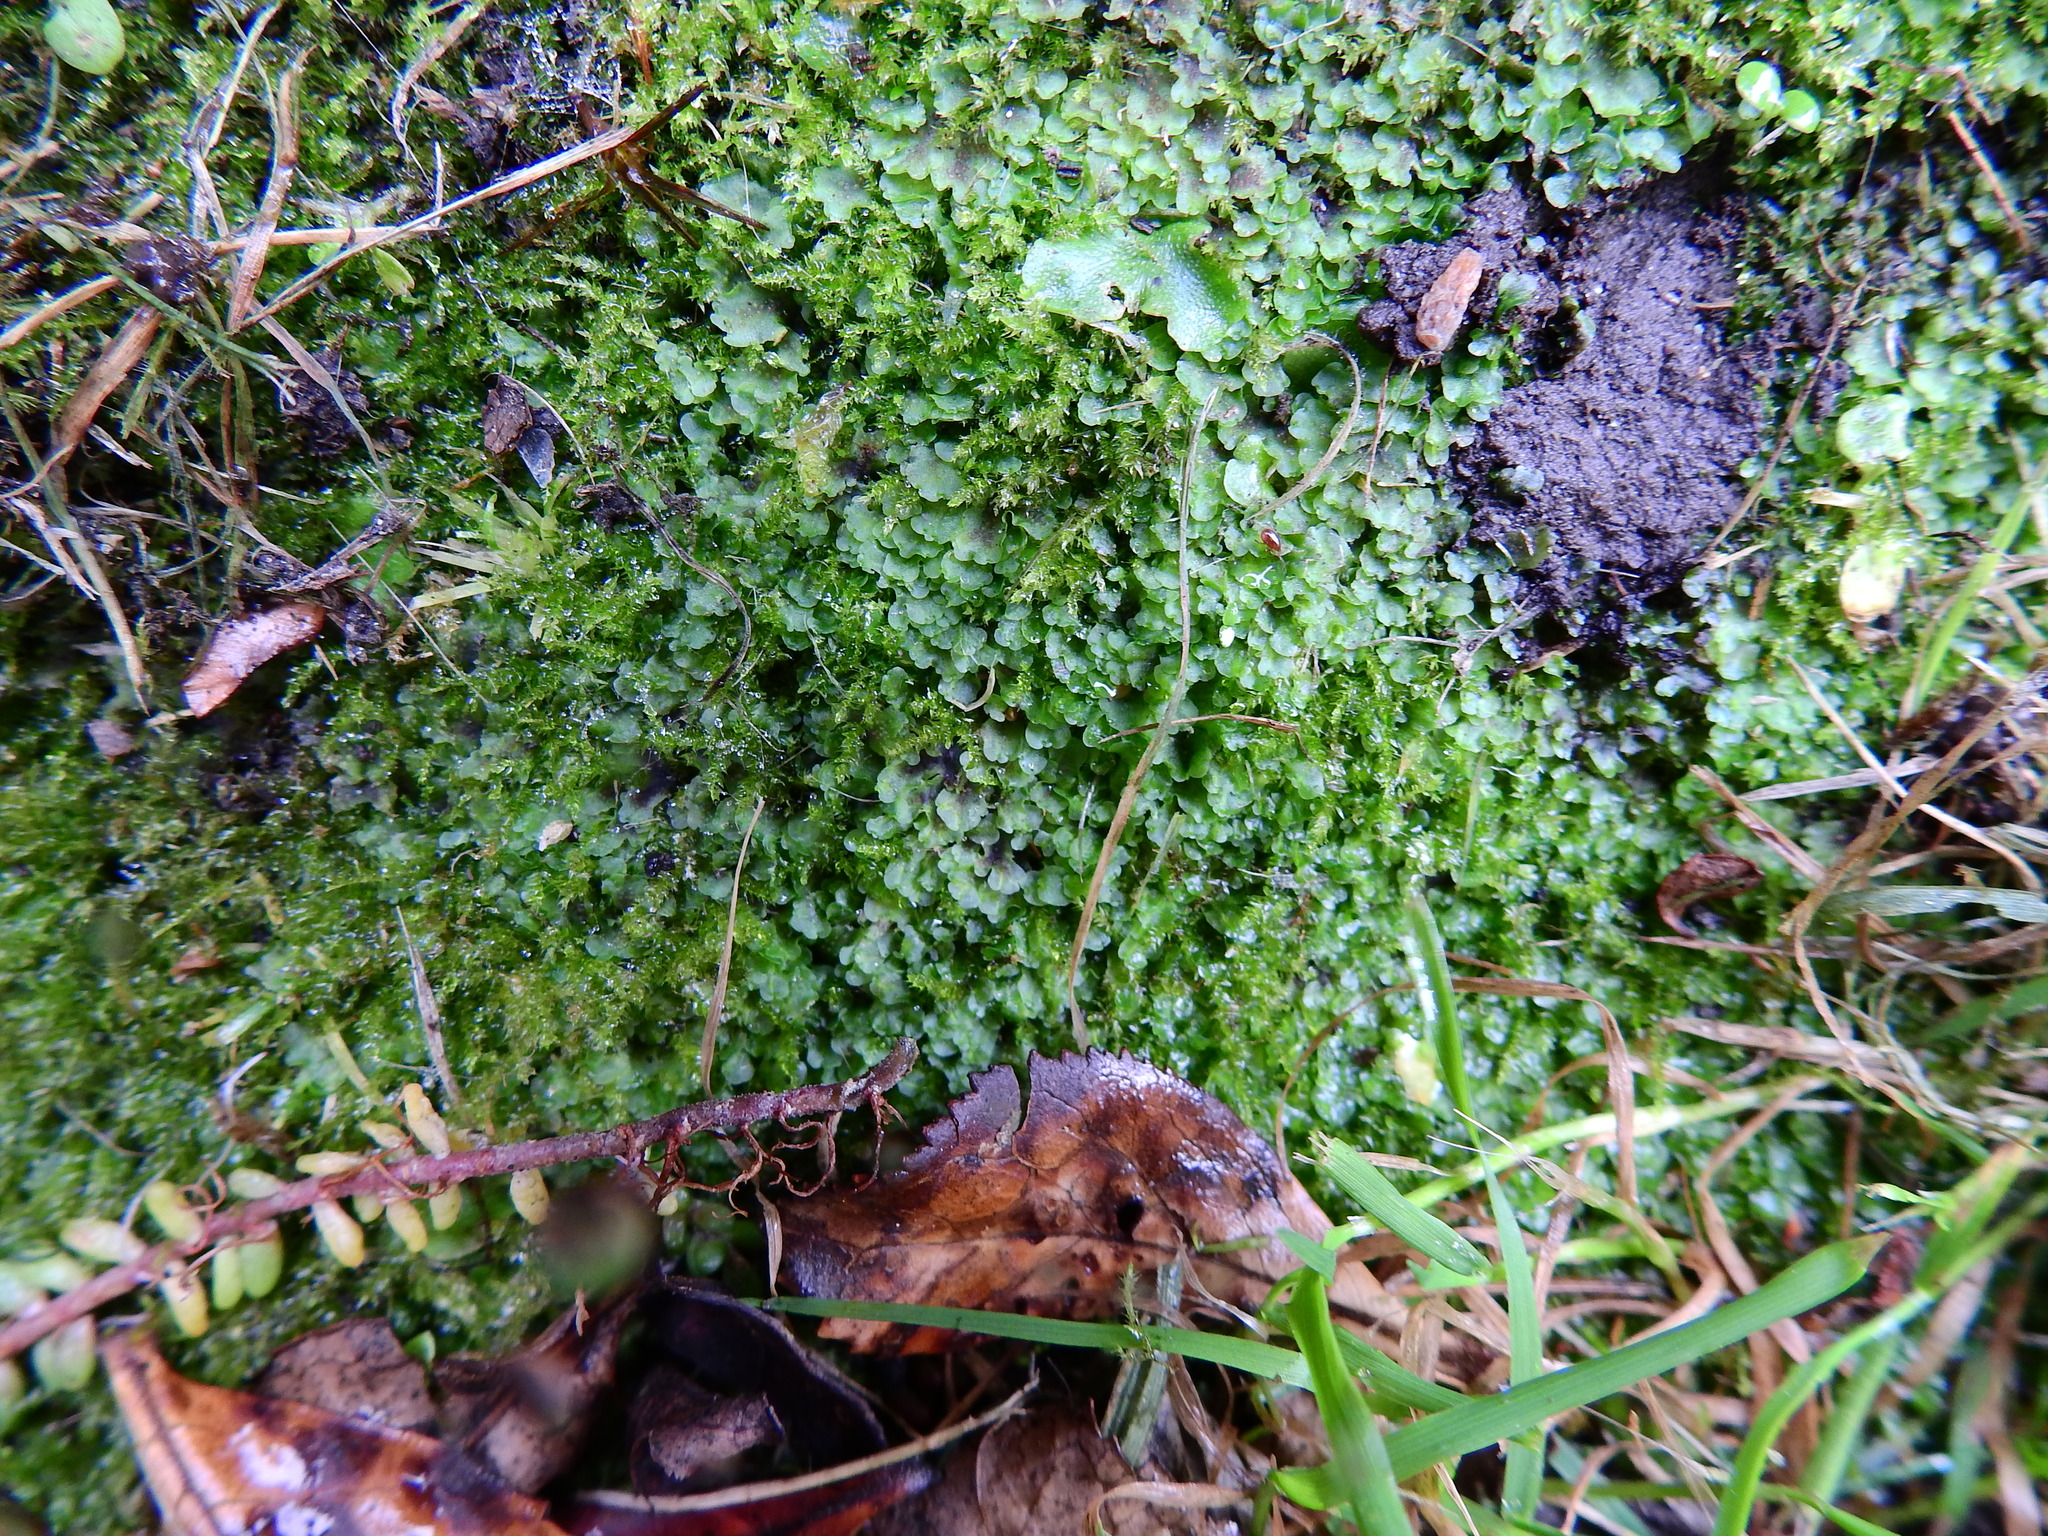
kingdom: Plantae
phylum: Marchantiophyta
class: Jungermanniopsida
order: Pelliales
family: Pelliaceae
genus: Pellia
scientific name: Pellia neesiana
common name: Nees  pellia
